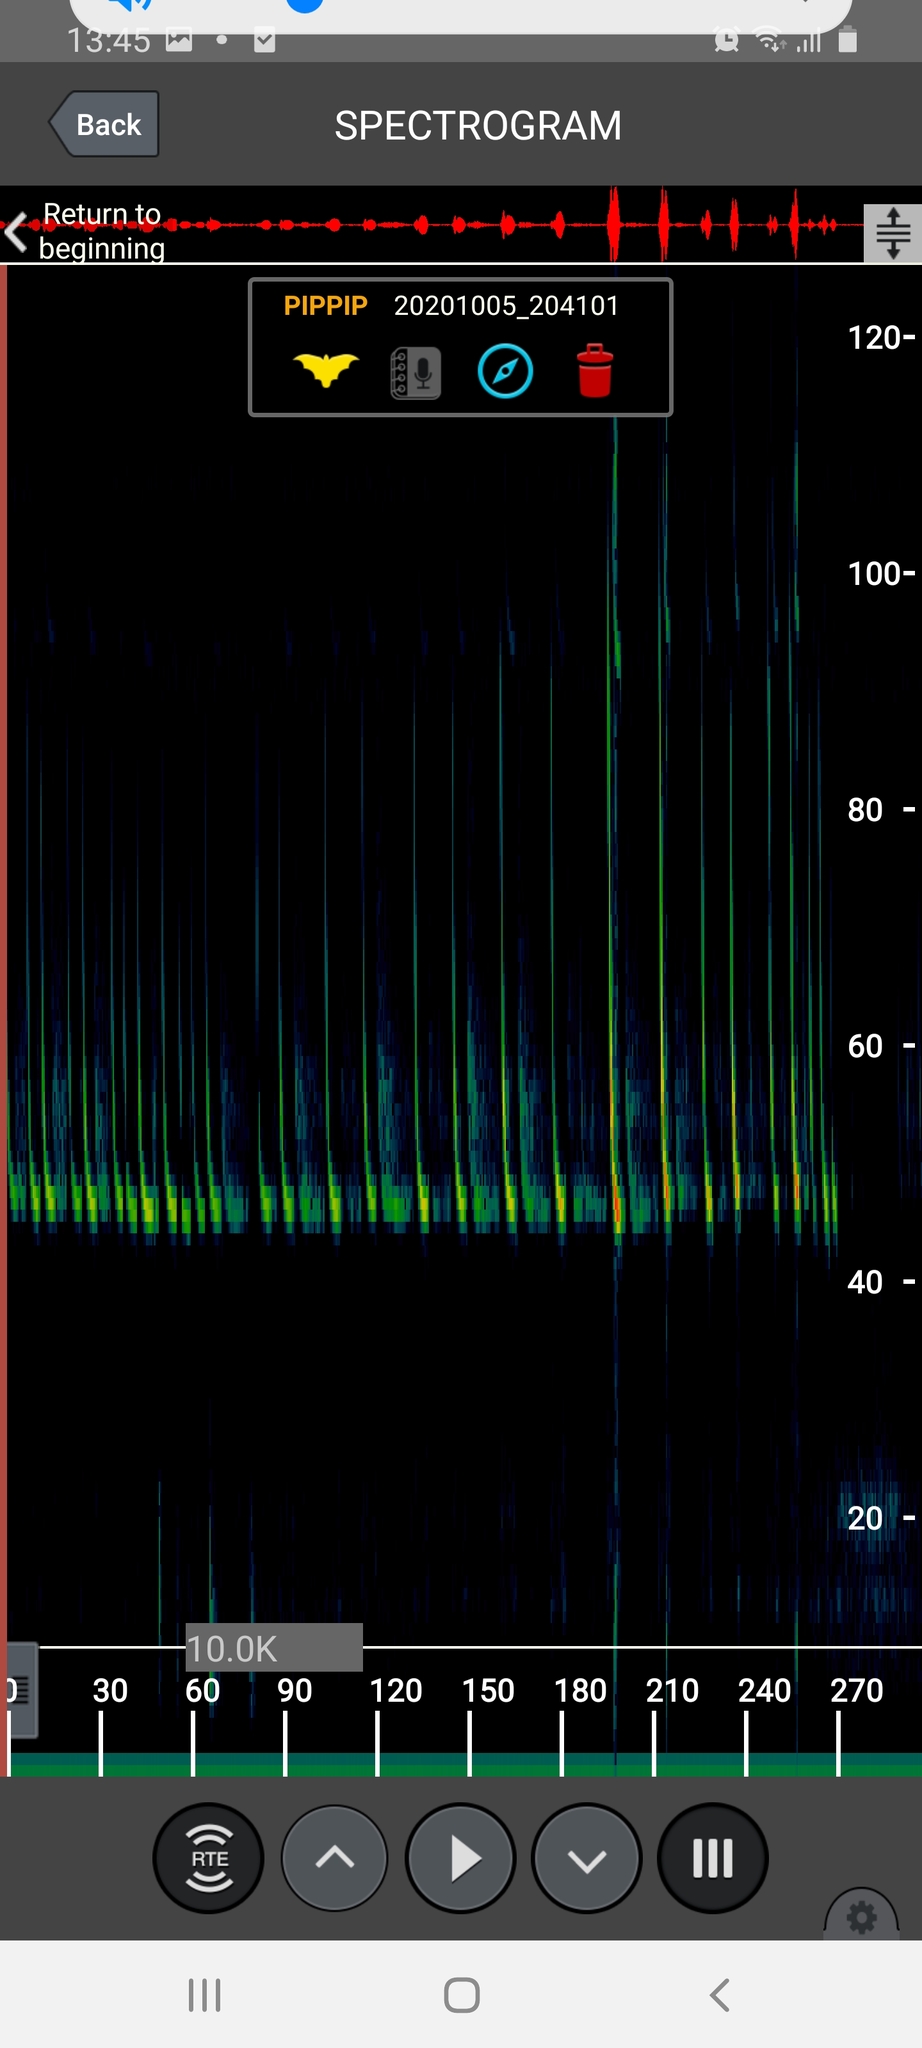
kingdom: Animalia
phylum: Chordata
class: Mammalia
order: Chiroptera
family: Vespertilionidae
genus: Pipistrellus
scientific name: Pipistrellus pipistrellus
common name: Common pipistrelle
